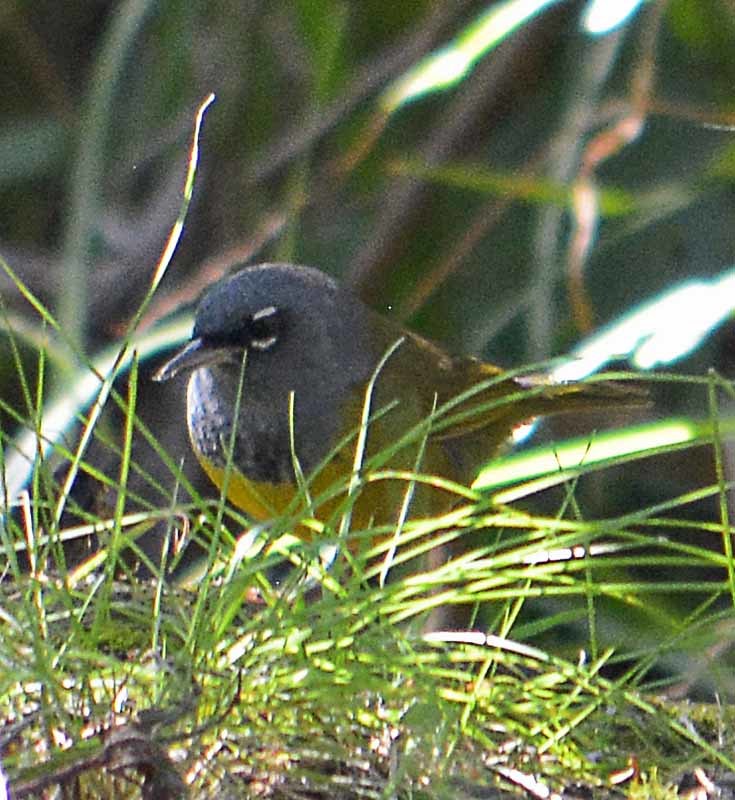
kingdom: Animalia
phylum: Chordata
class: Aves
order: Passeriformes
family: Parulidae
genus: Geothlypis
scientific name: Geothlypis tolmiei
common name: Macgillivray's warbler
